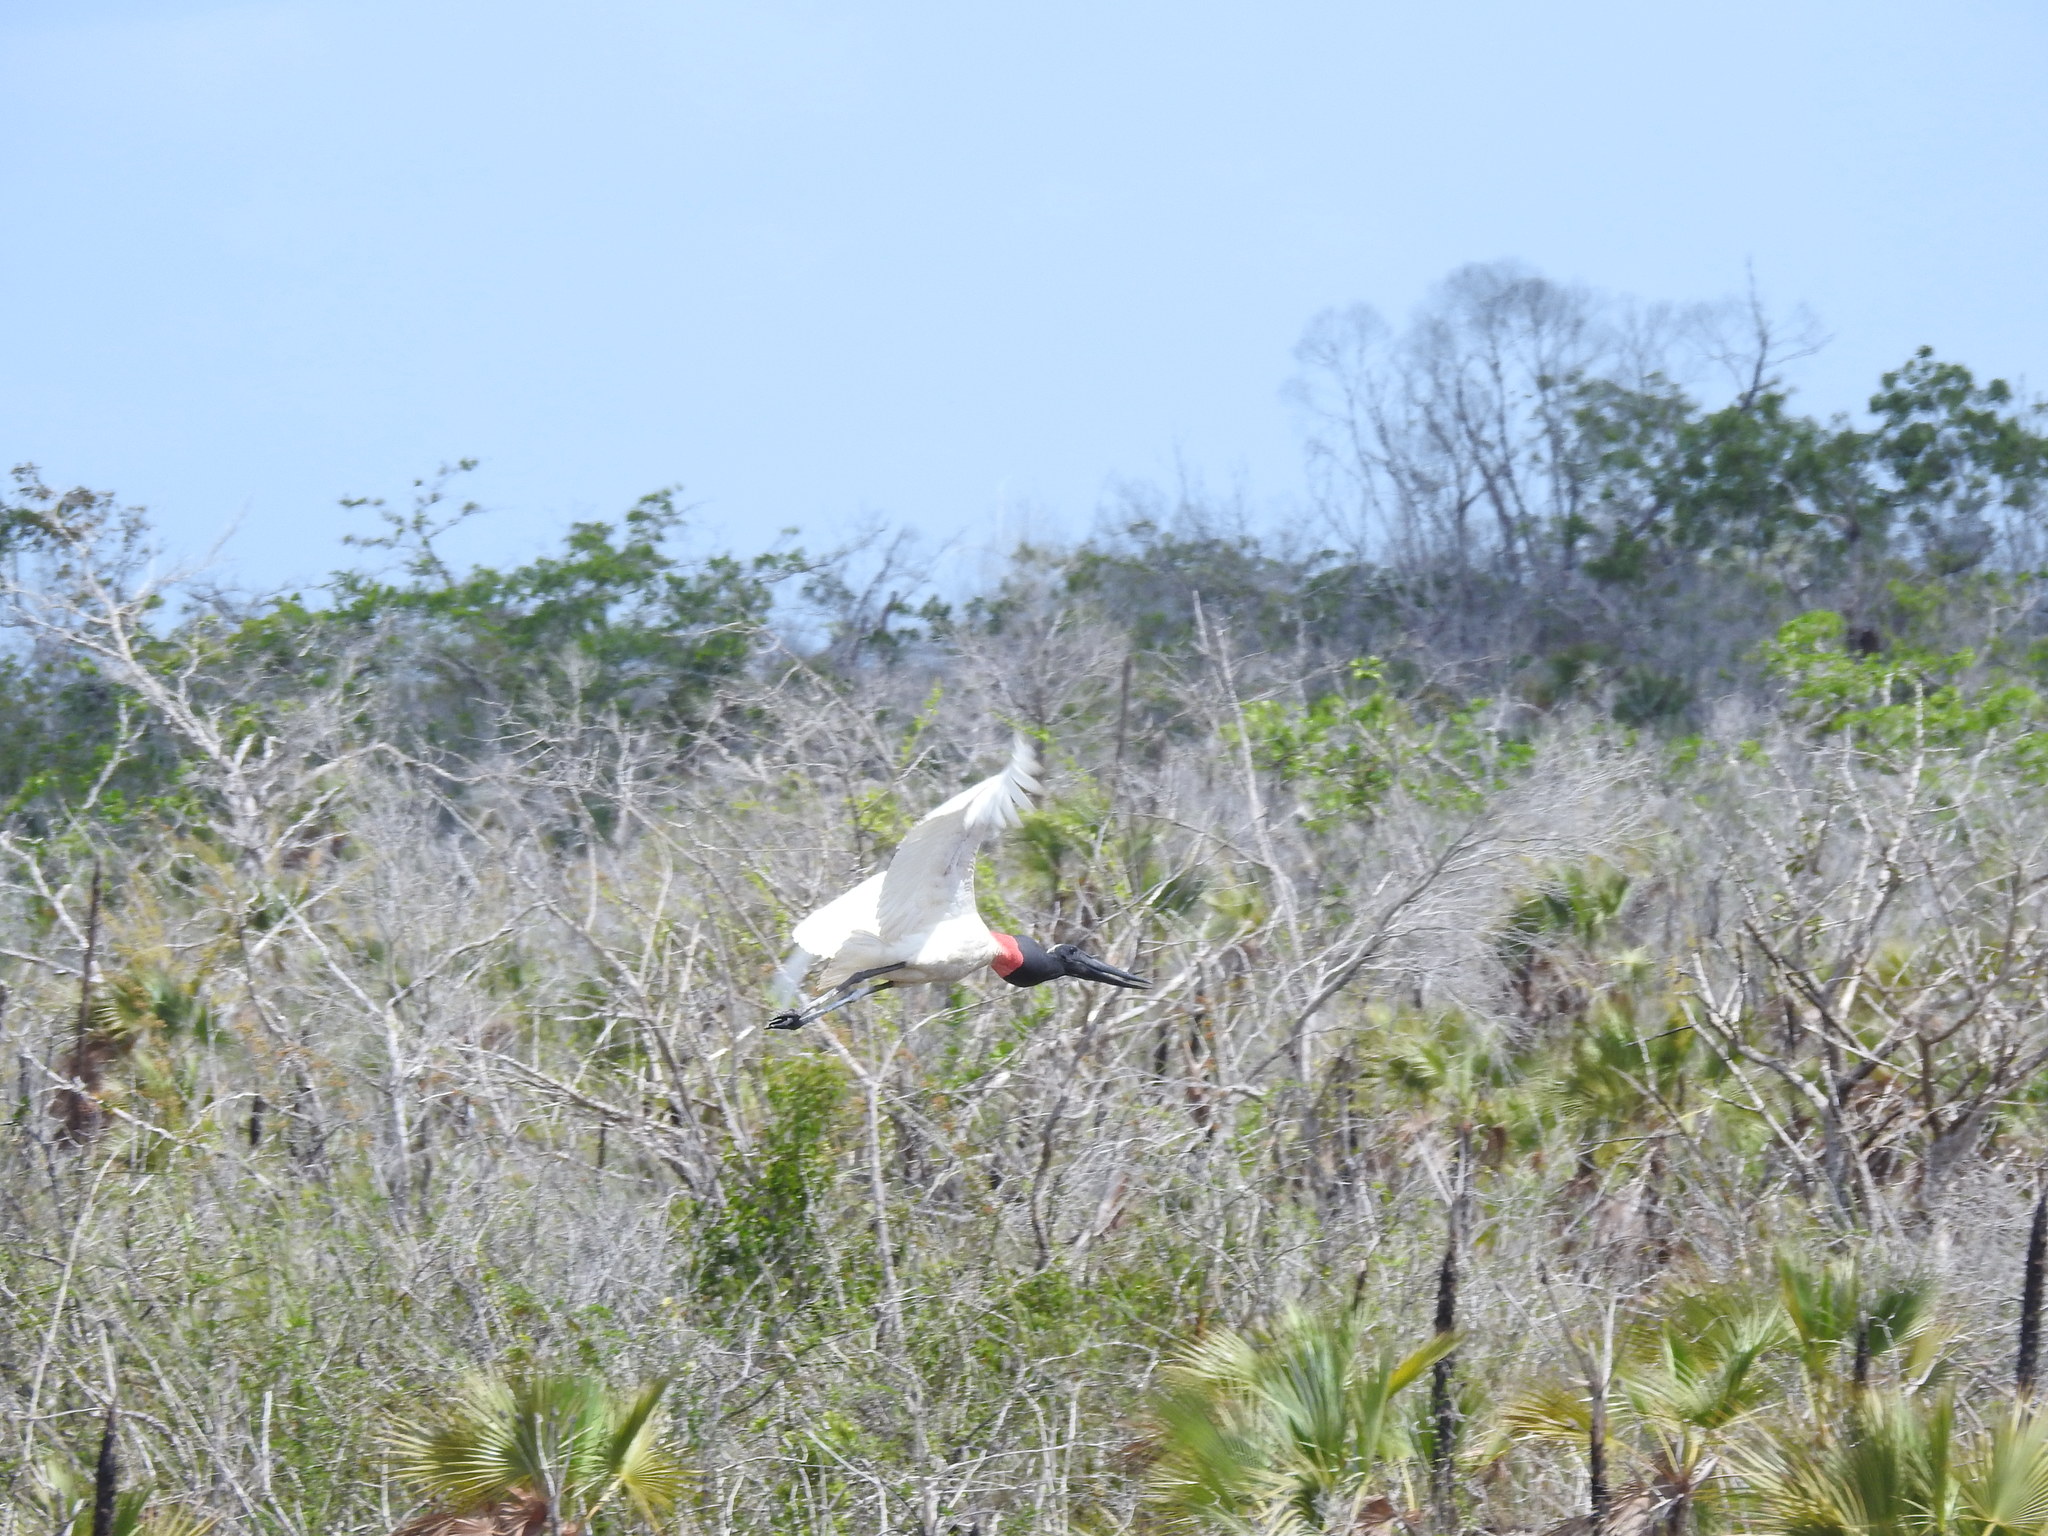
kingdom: Animalia
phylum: Chordata
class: Aves
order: Ciconiiformes
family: Ciconiidae
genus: Jabiru
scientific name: Jabiru mycteria
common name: Jabiru
